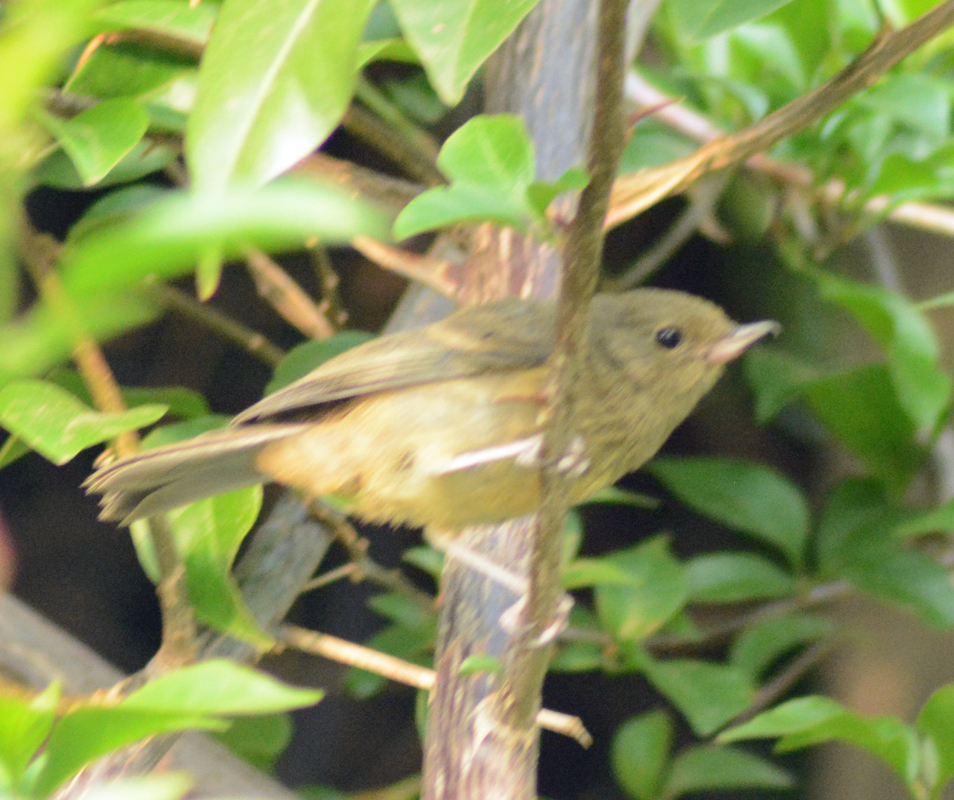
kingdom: Animalia
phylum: Chordata
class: Aves
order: Passeriformes
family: Thraupidae
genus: Diglossa
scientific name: Diglossa baritula
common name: Cinnamon-bellied flowerpiercer
